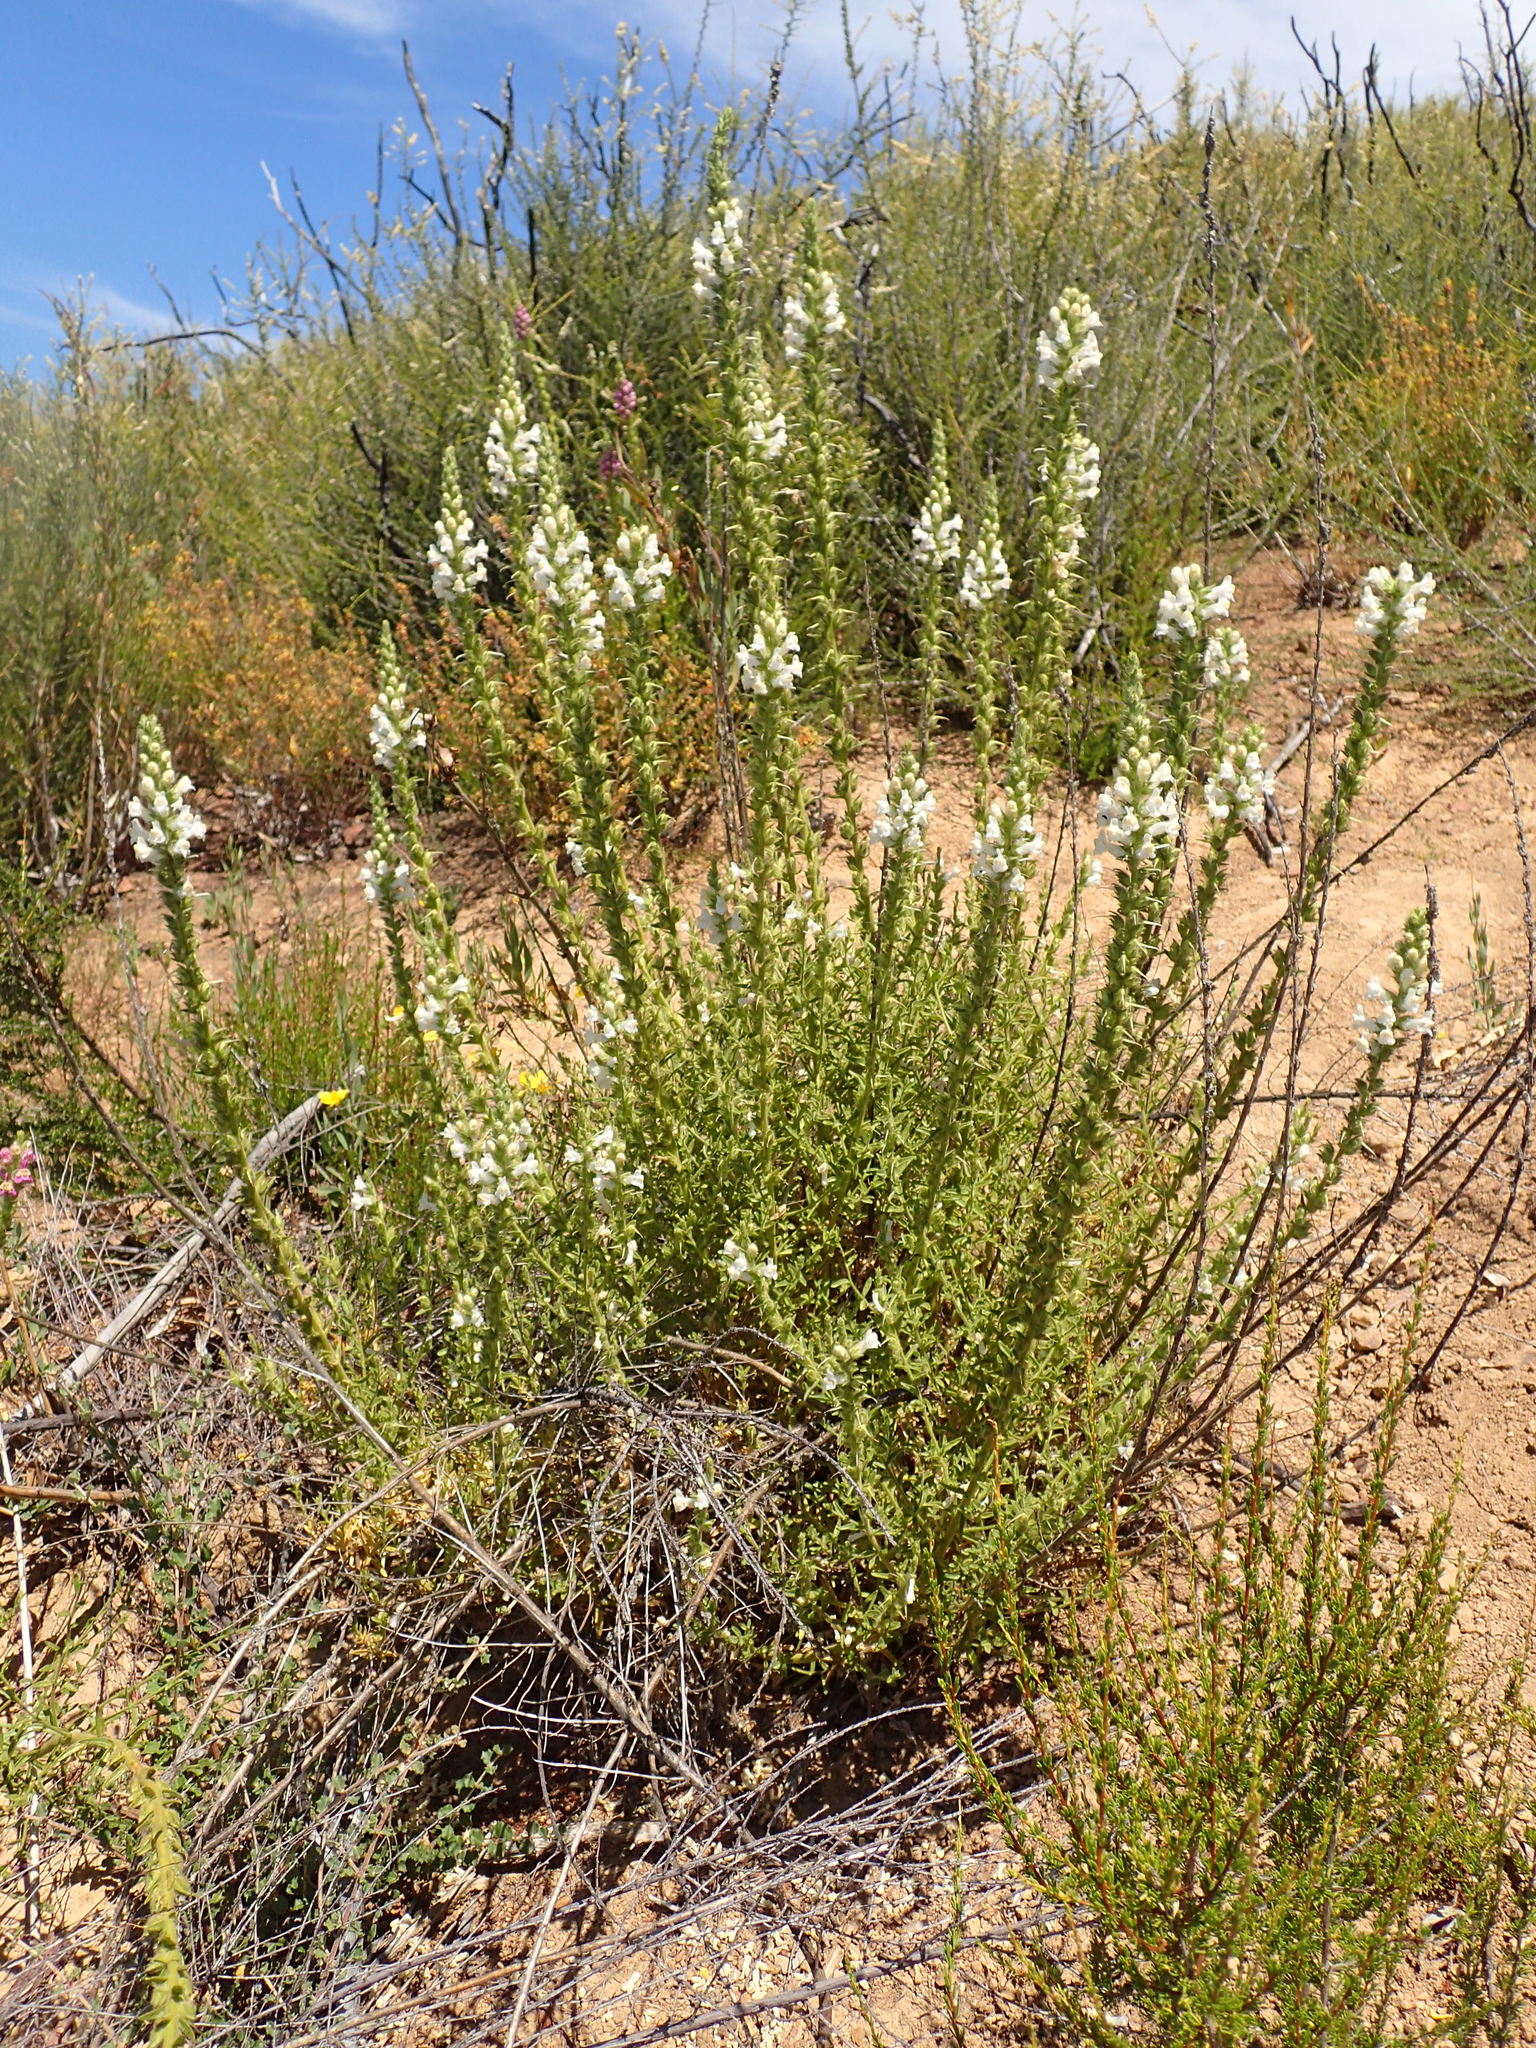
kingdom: Plantae
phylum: Tracheophyta
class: Magnoliopsida
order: Lamiales
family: Plantaginaceae
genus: Sairocarpus
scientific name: Sairocarpus multiflorus
